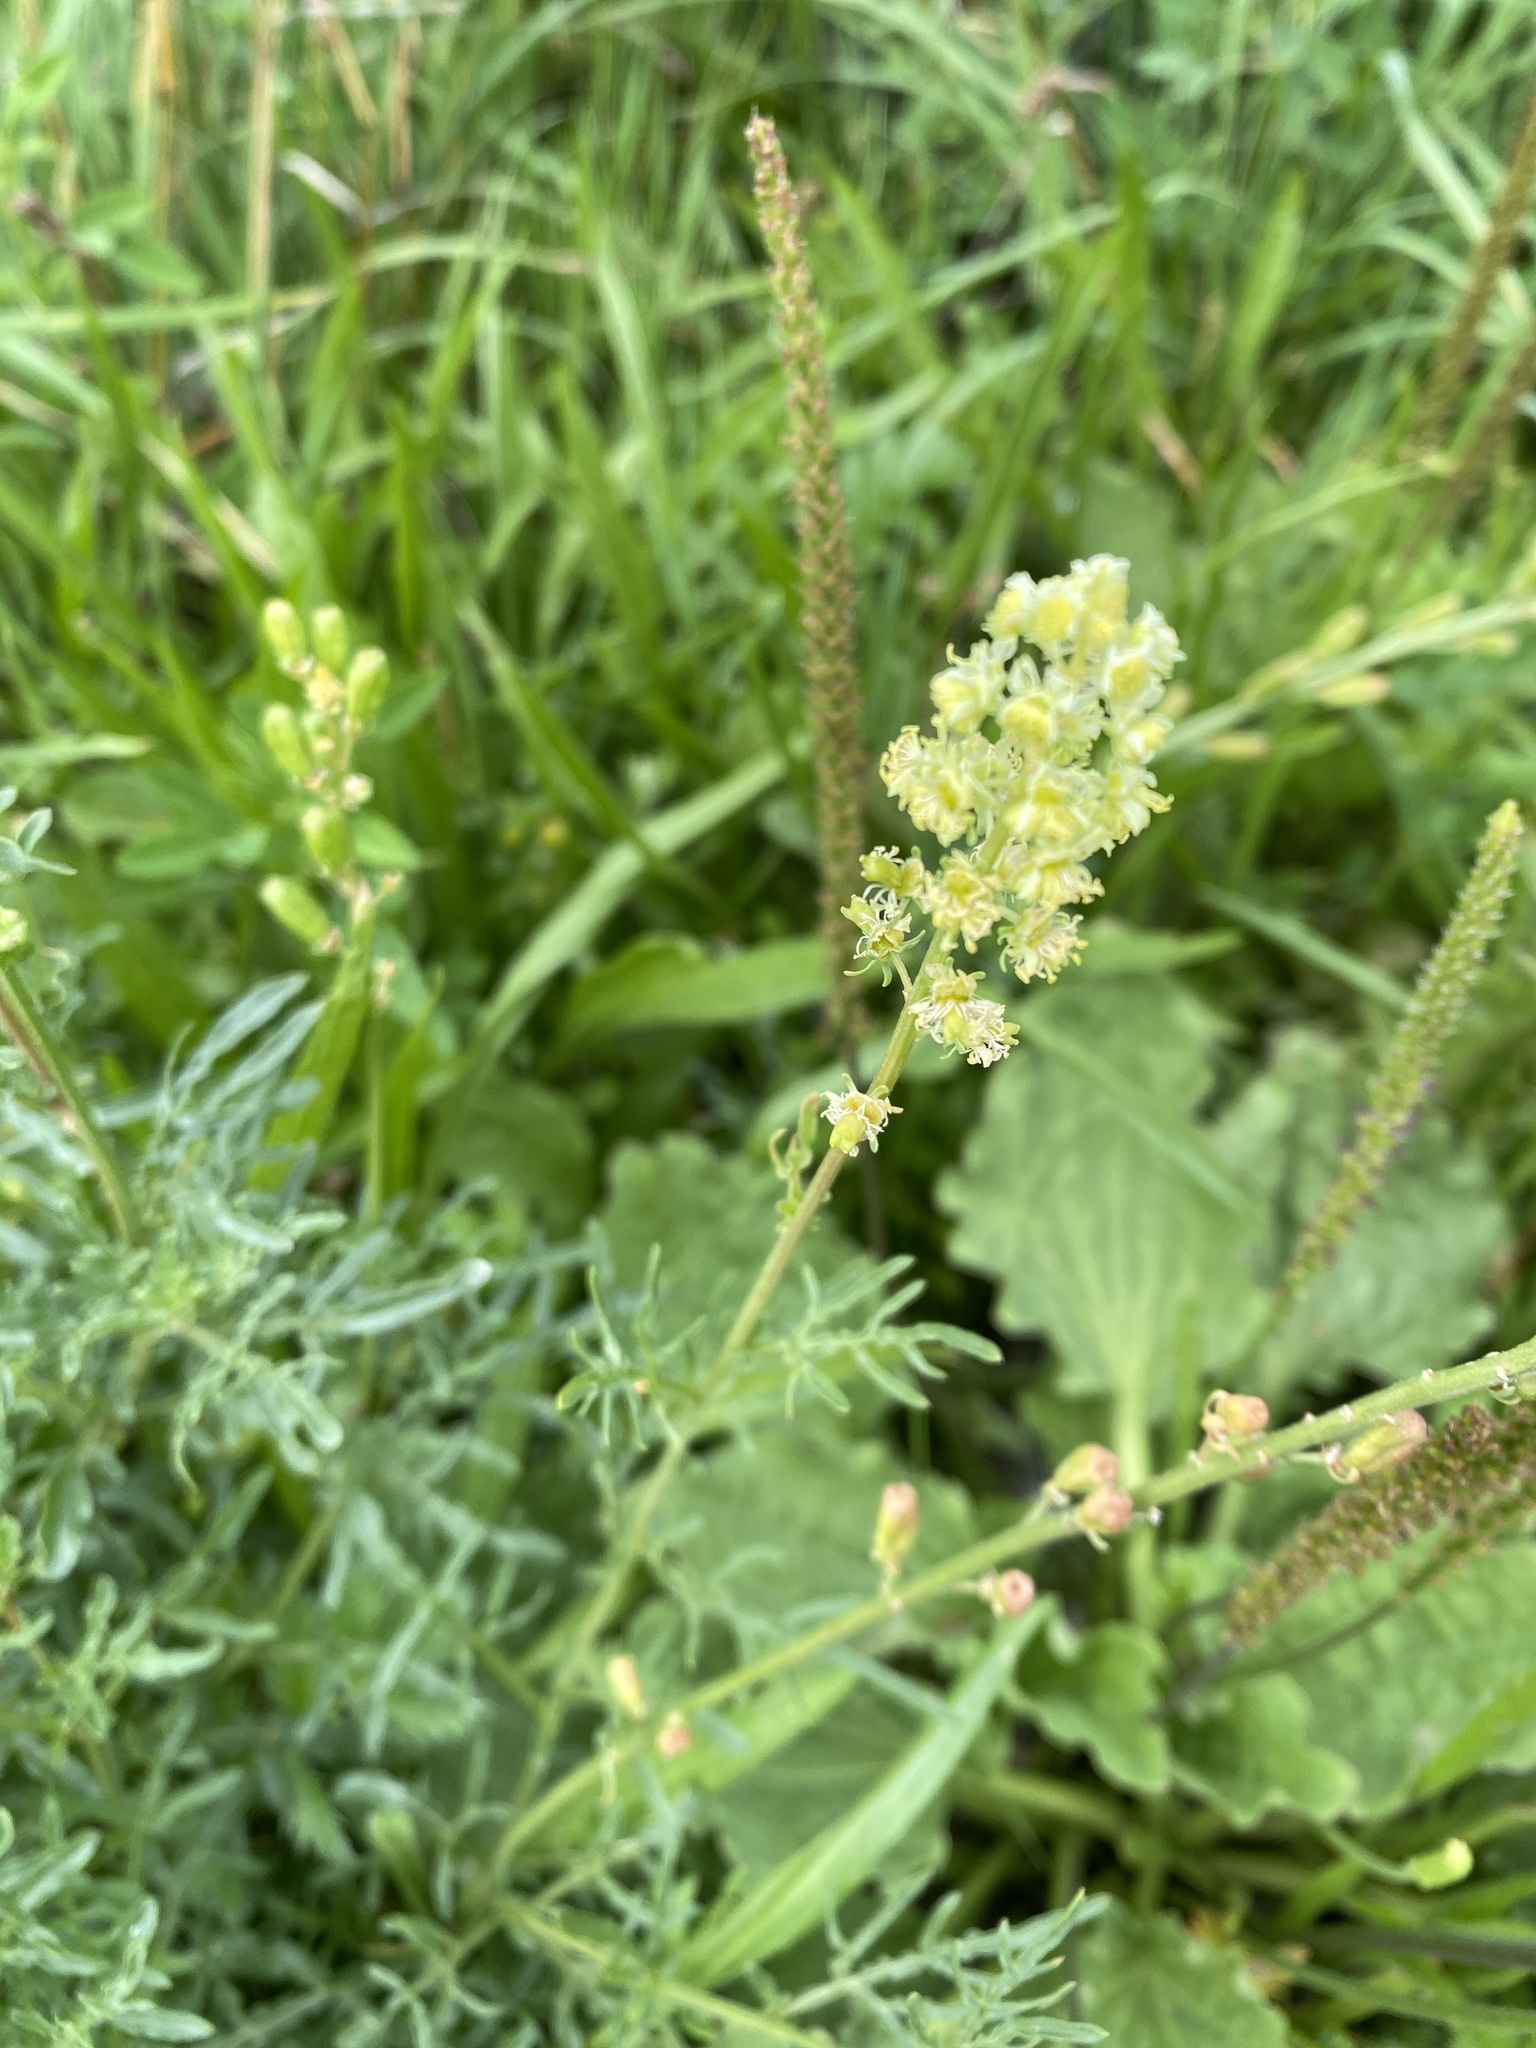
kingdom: Plantae
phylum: Tracheophyta
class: Magnoliopsida
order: Brassicales
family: Resedaceae
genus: Reseda
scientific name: Reseda lutea
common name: Wild mignonette
